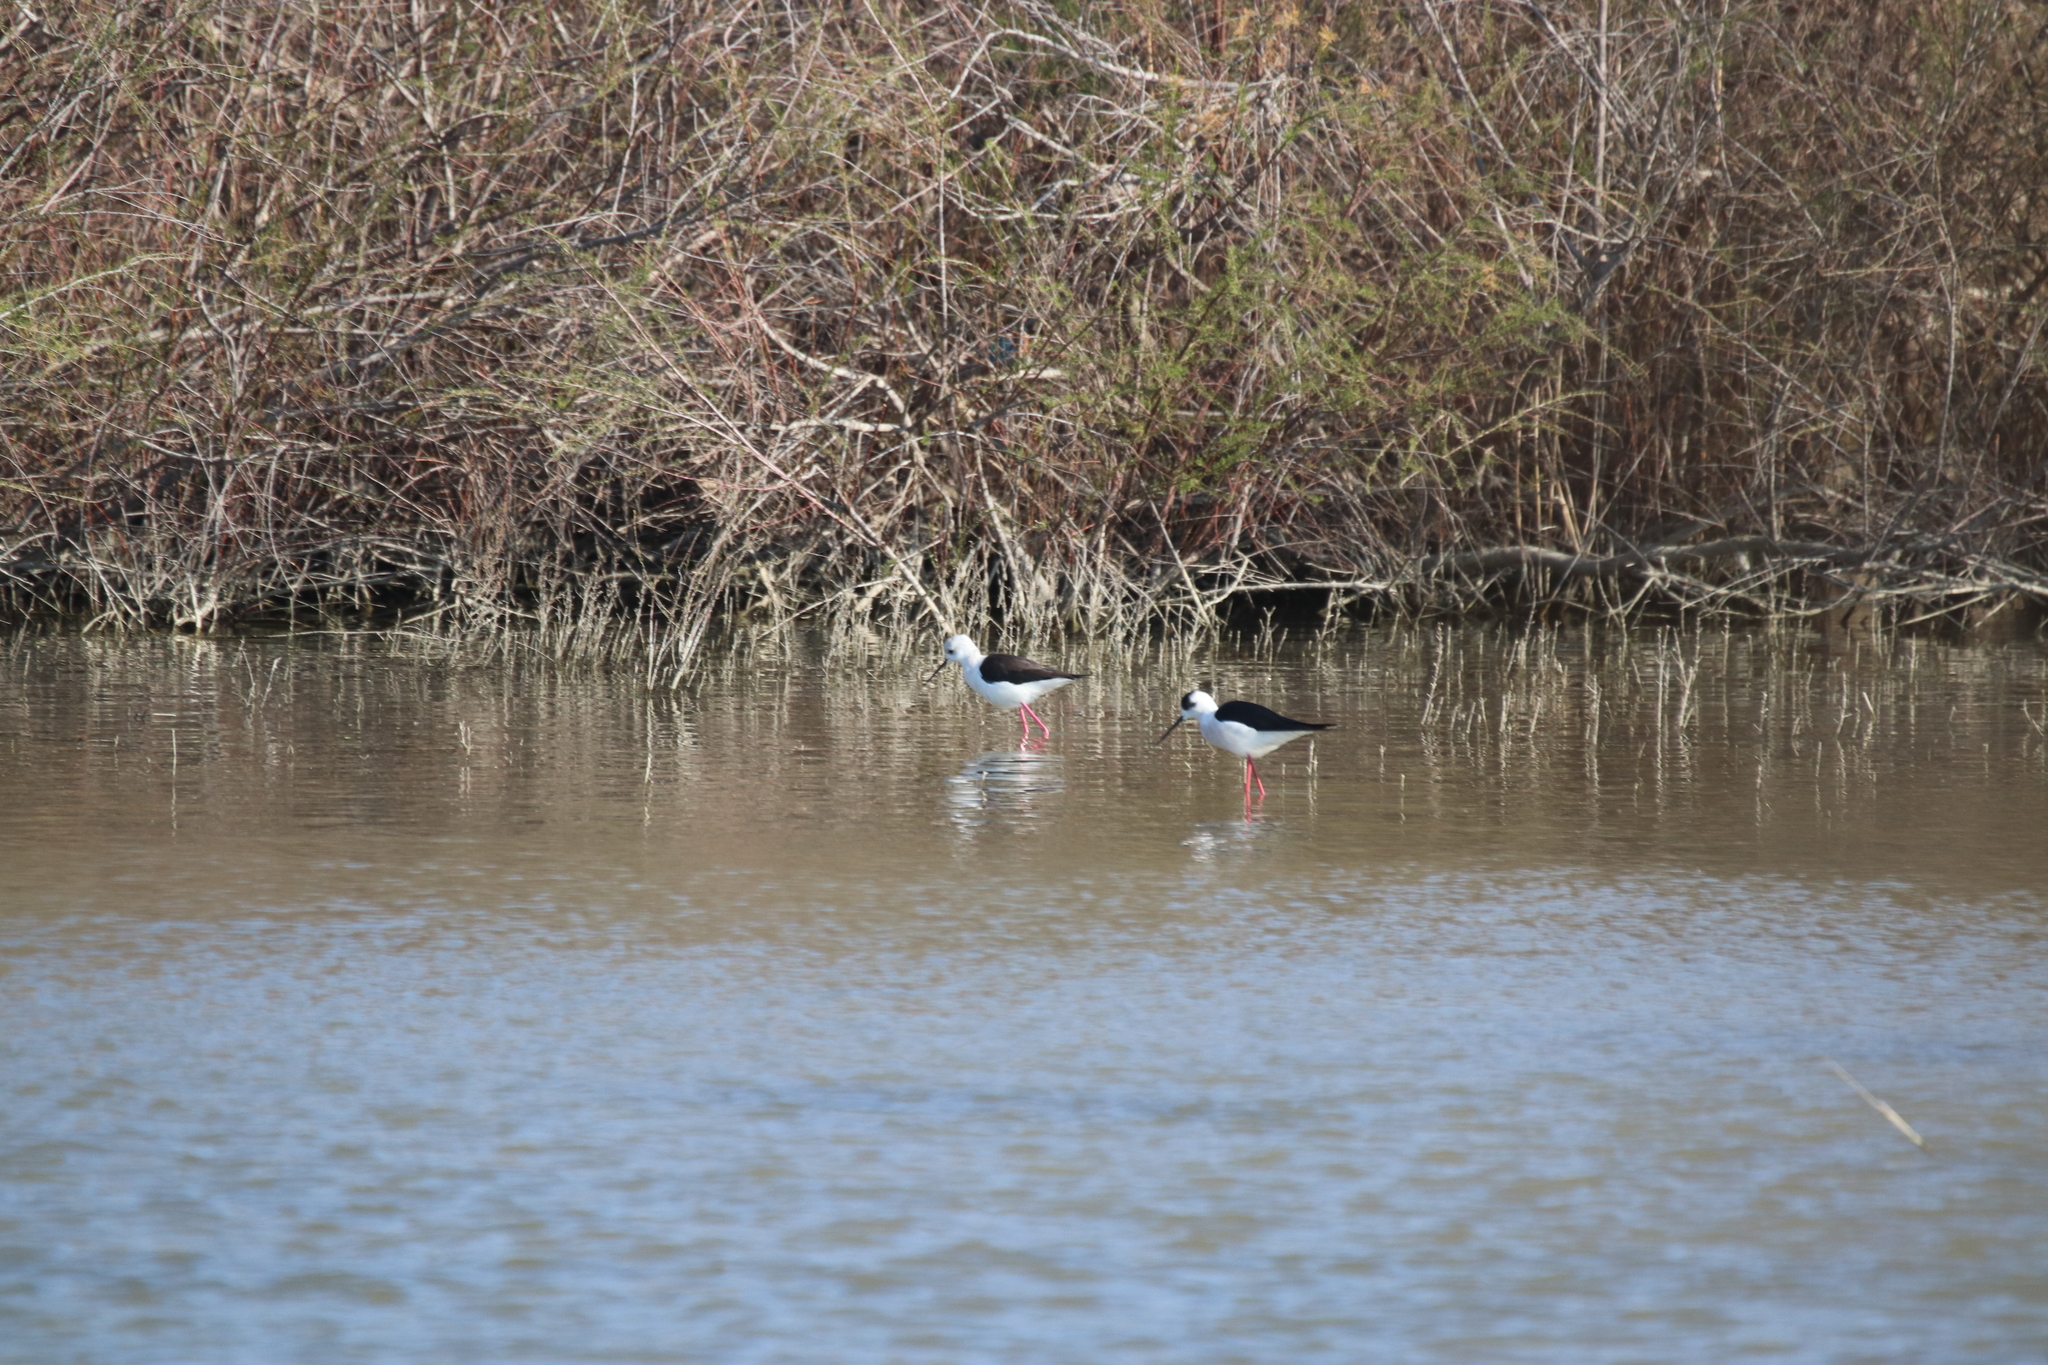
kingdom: Animalia
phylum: Chordata
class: Aves
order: Charadriiformes
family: Recurvirostridae
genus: Himantopus
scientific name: Himantopus himantopus
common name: Black-winged stilt
